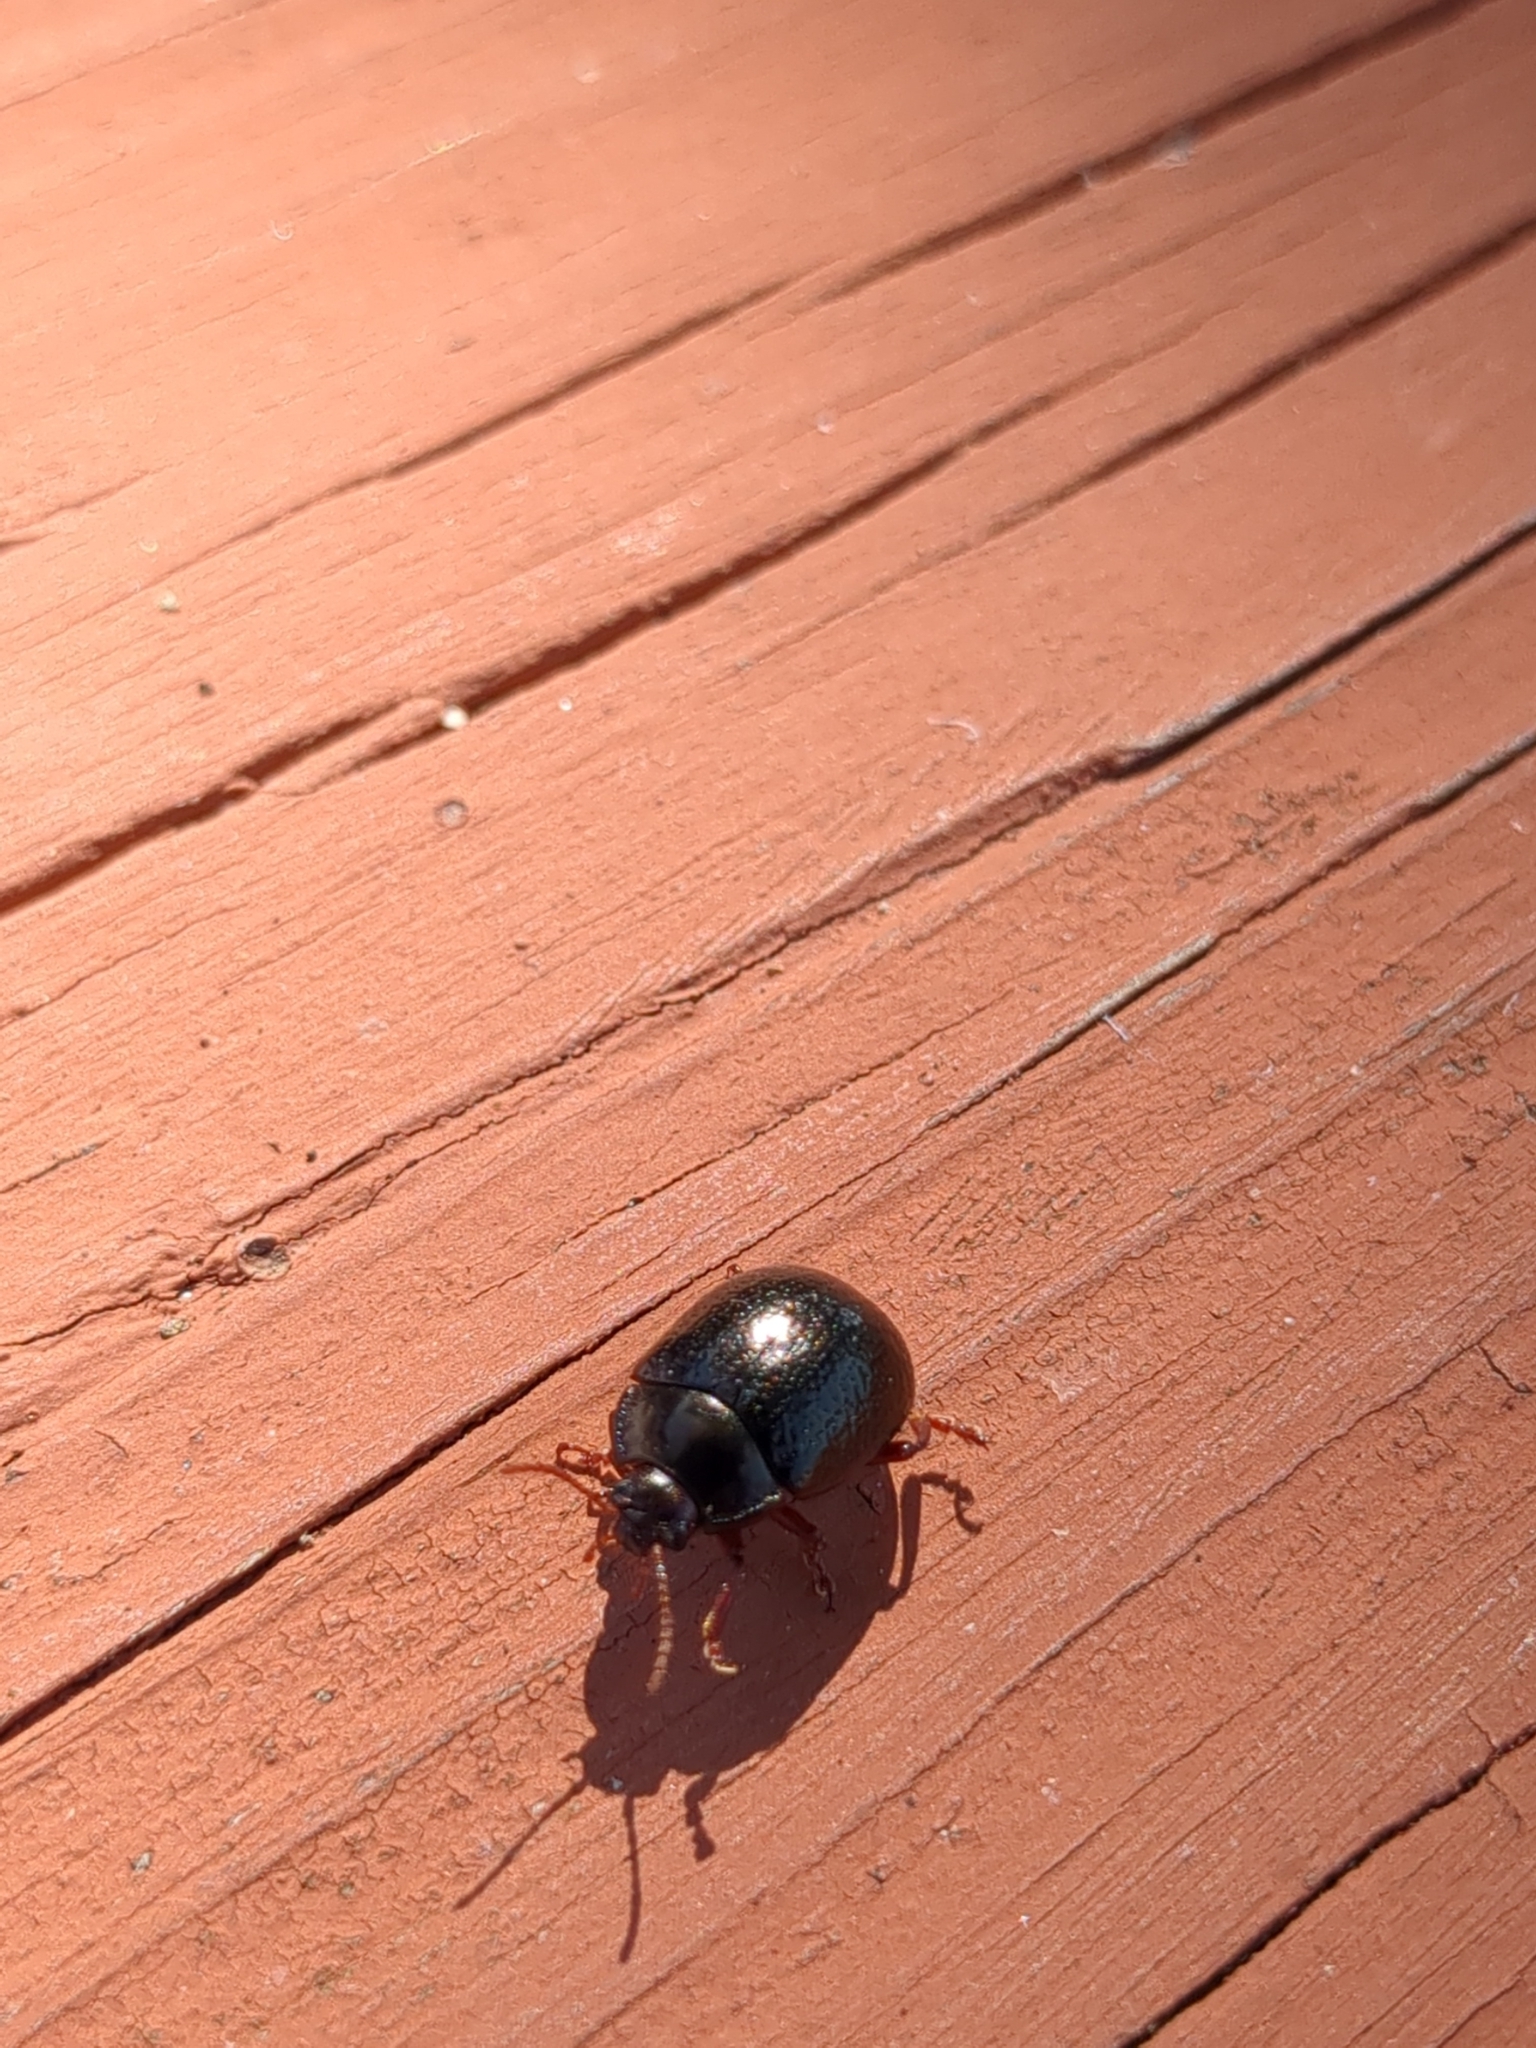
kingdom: Animalia
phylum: Arthropoda
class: Insecta
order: Coleoptera
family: Chrysomelidae
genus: Chrysolina
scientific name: Chrysolina bankii
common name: Leaf beetle
